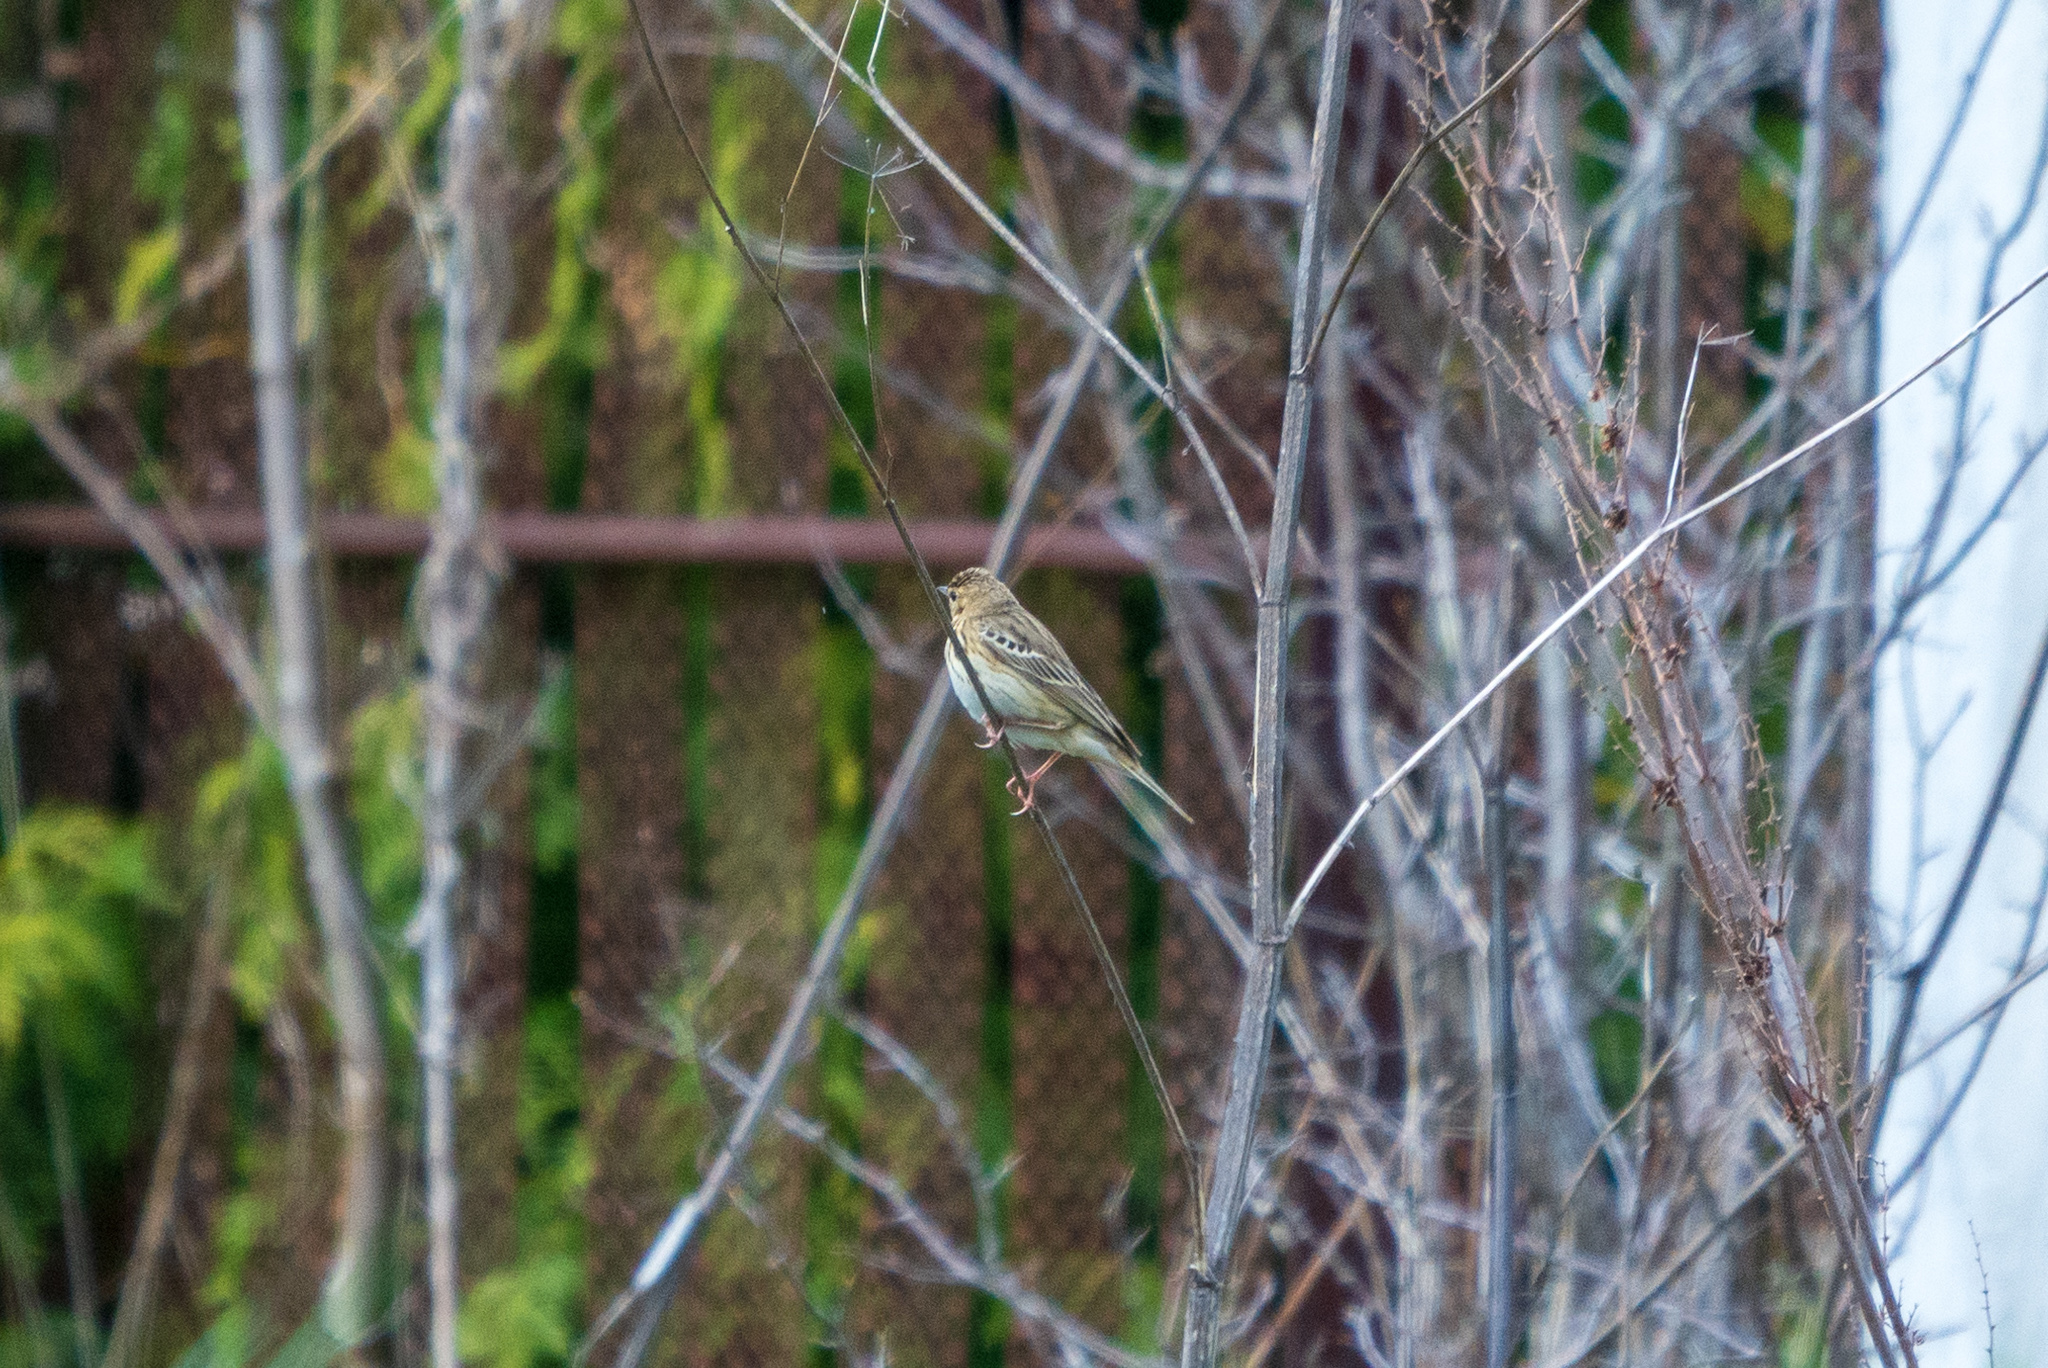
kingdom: Animalia
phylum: Chordata
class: Aves
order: Passeriformes
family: Motacillidae
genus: Anthus
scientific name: Anthus trivialis
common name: Tree pipit
